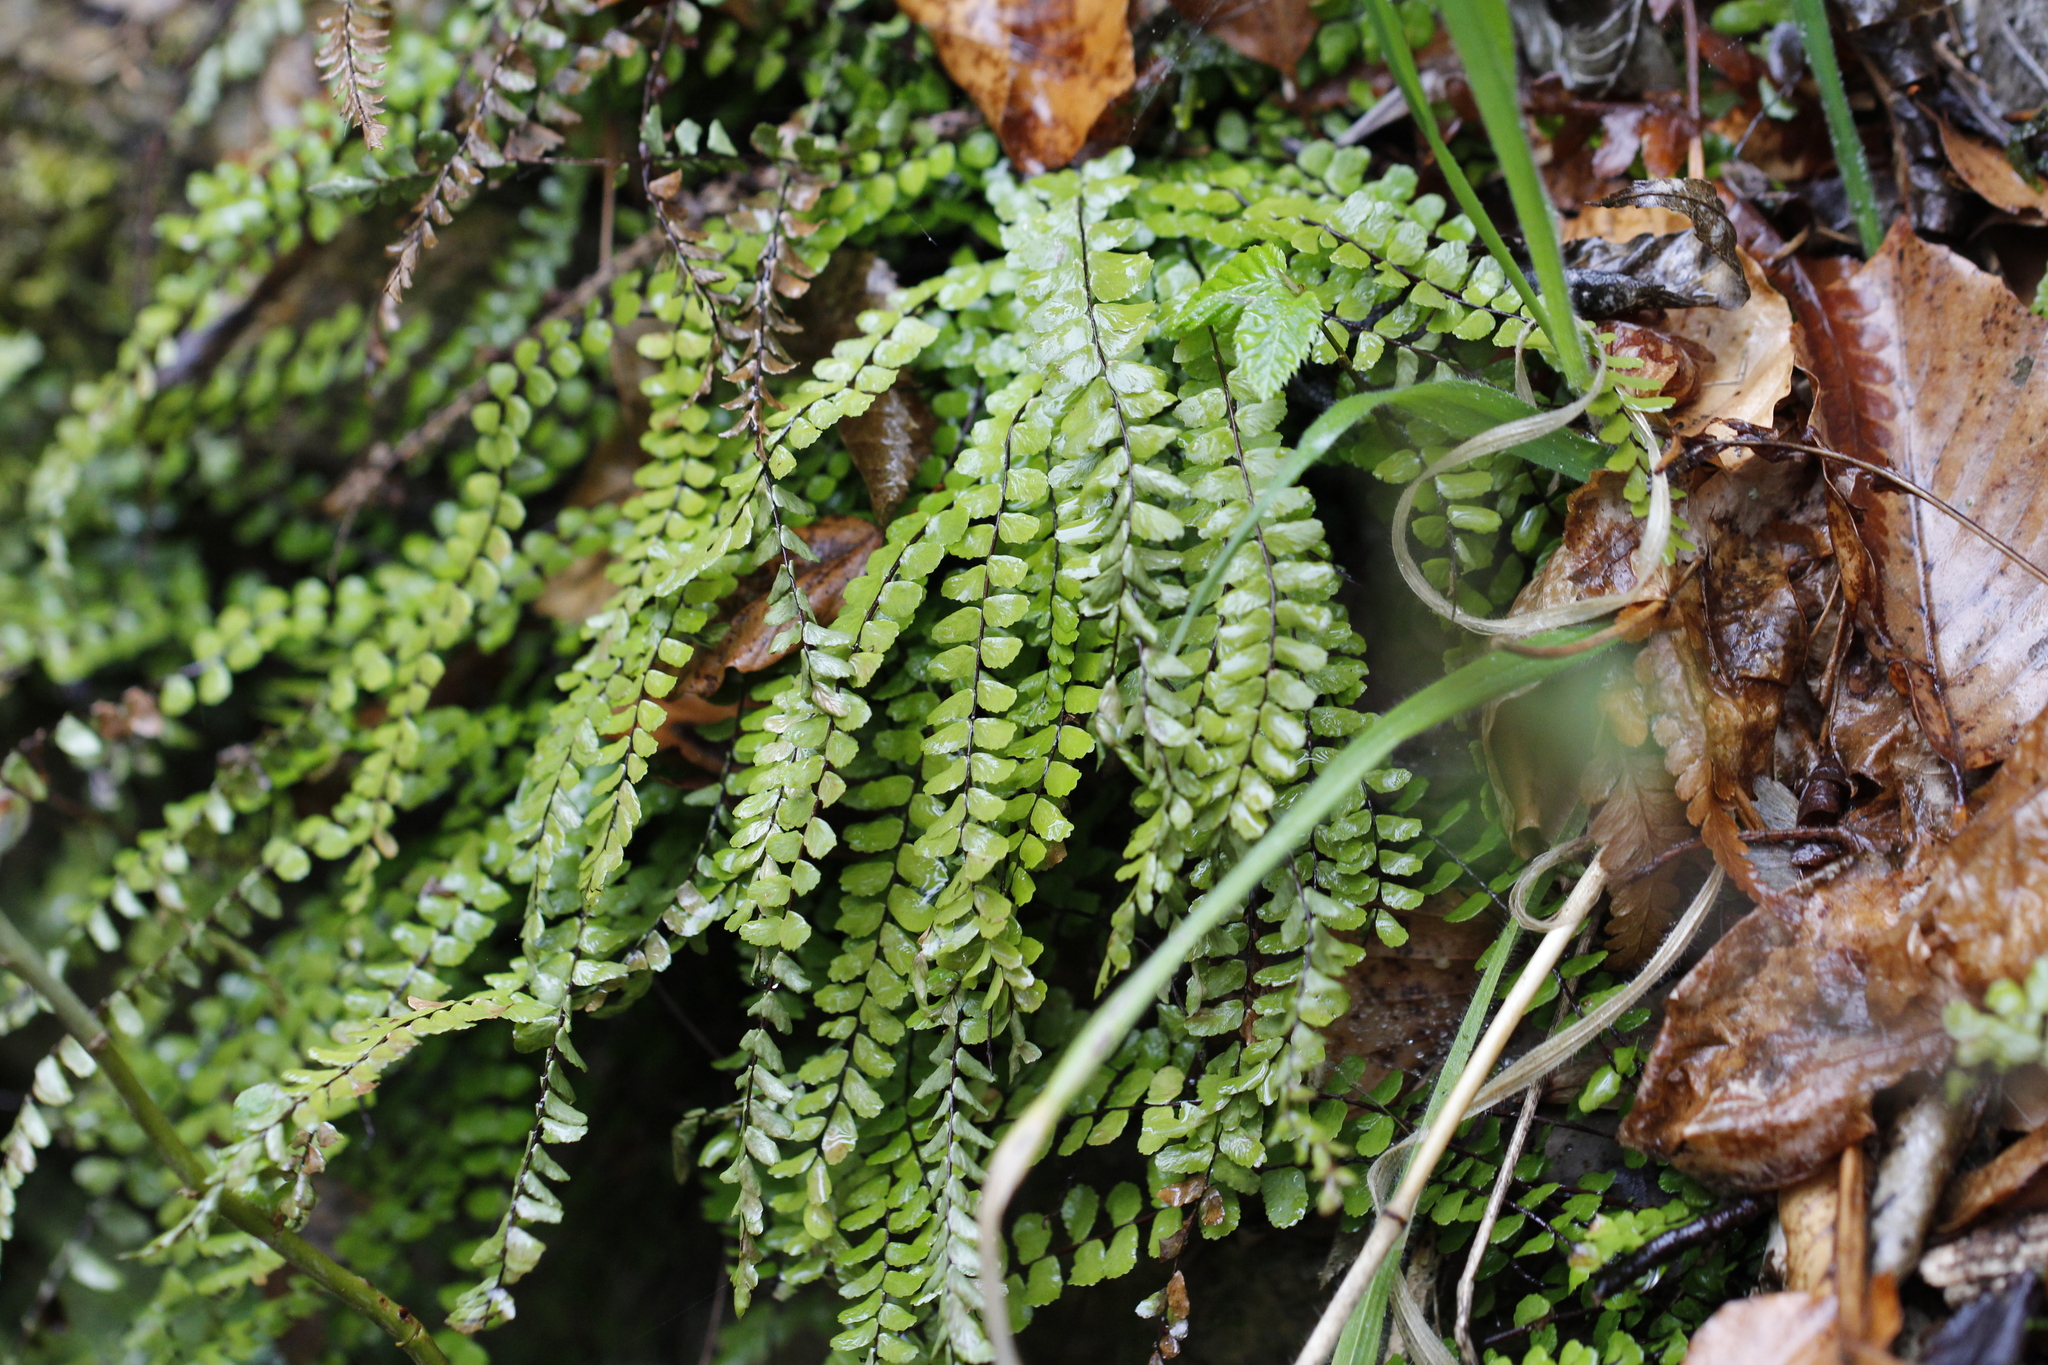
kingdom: Plantae
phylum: Tracheophyta
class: Polypodiopsida
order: Polypodiales
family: Aspleniaceae
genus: Asplenium
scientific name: Asplenium trichomanes
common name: Maidenhair spleenwort
